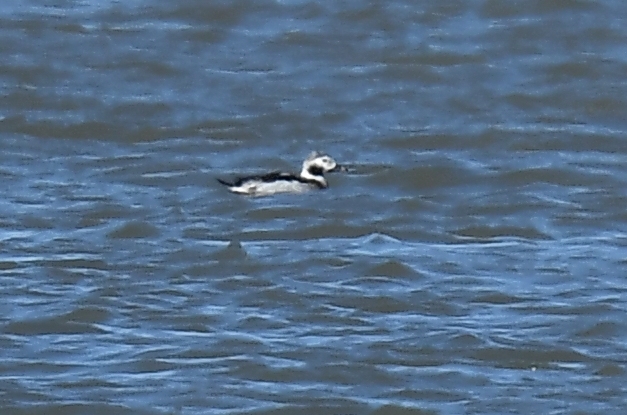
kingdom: Animalia
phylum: Chordata
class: Aves
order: Anseriformes
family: Anatidae
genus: Clangula
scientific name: Clangula hyemalis
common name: Long-tailed duck
